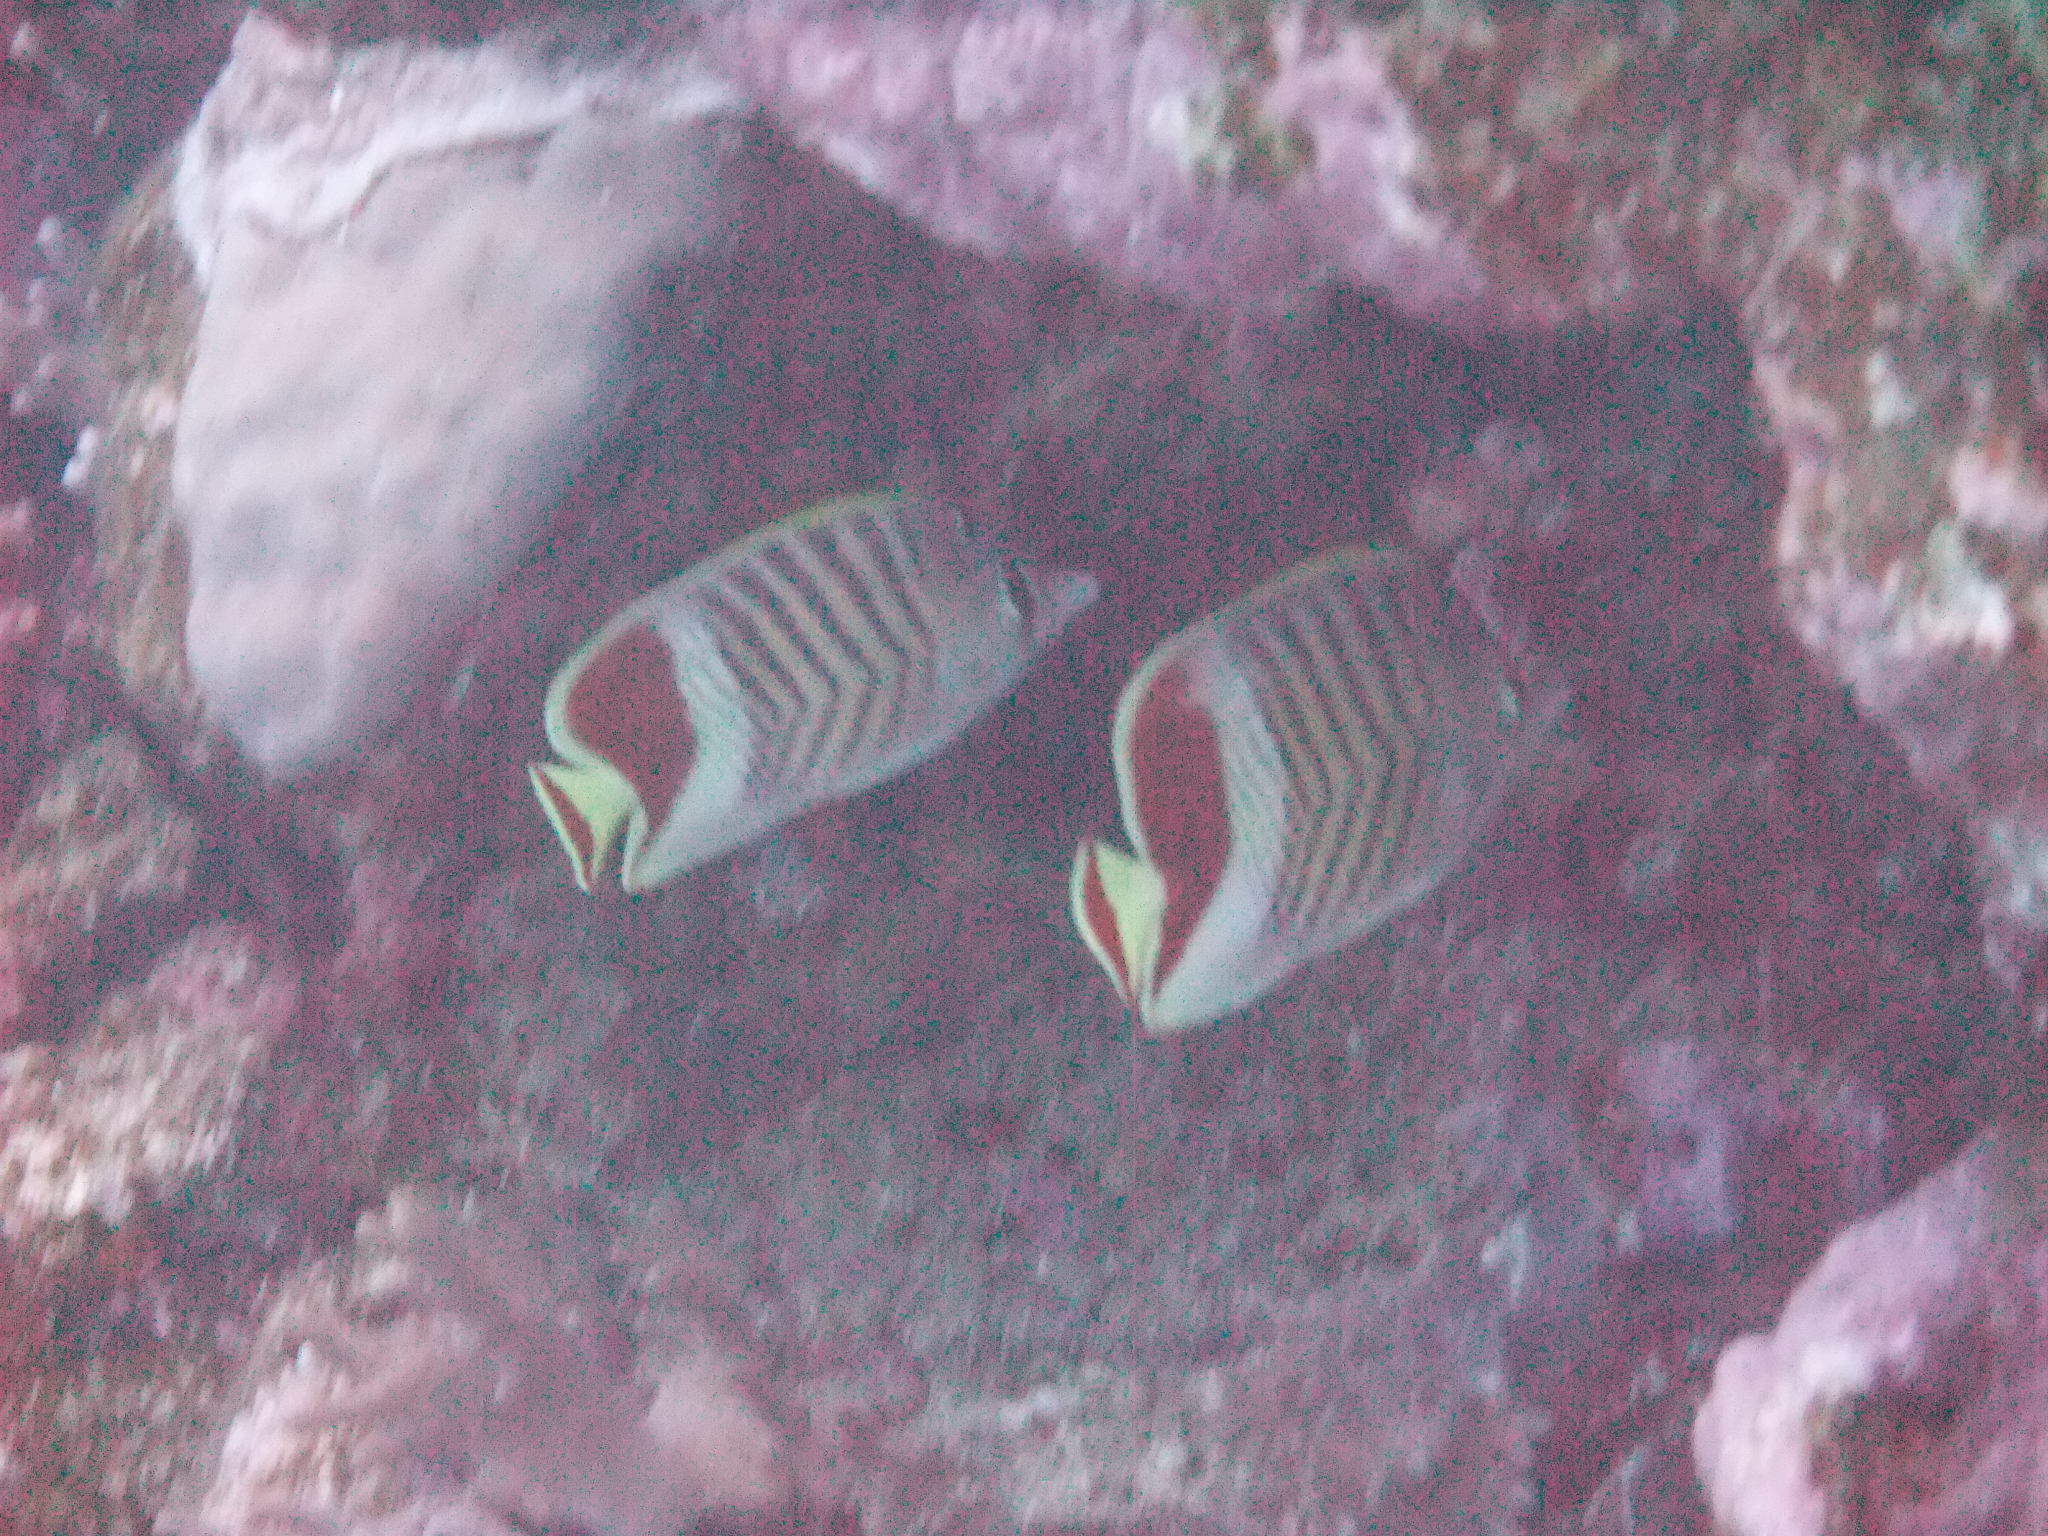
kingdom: Animalia
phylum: Chordata
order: Perciformes
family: Chaetodontidae
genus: Chaetodon
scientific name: Chaetodon paucifasciatus
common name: Crown butterflyfish
